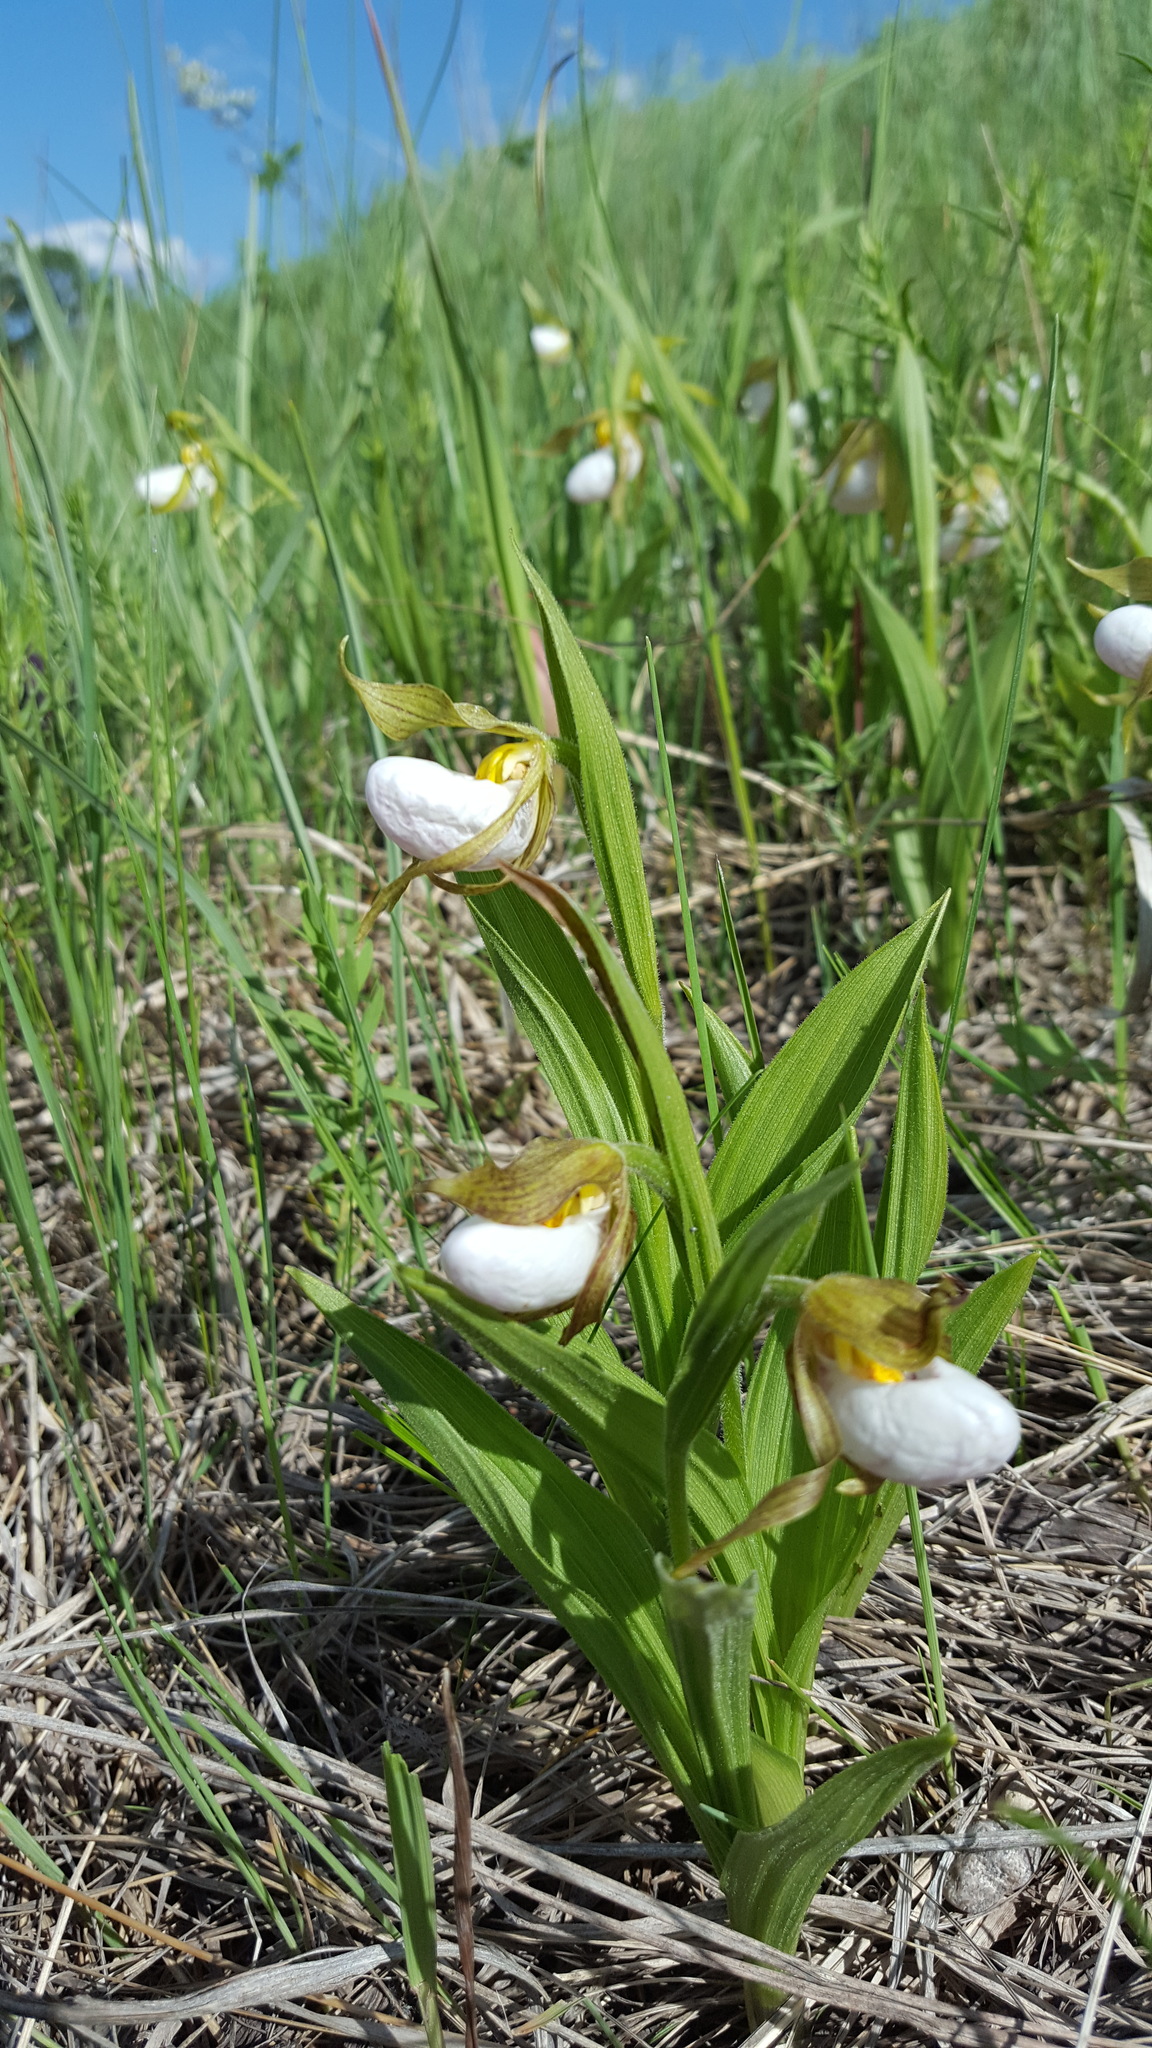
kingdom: Plantae
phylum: Tracheophyta
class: Liliopsida
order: Asparagales
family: Orchidaceae
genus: Cypripedium
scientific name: Cypripedium candidum
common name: White lady's-slipper
